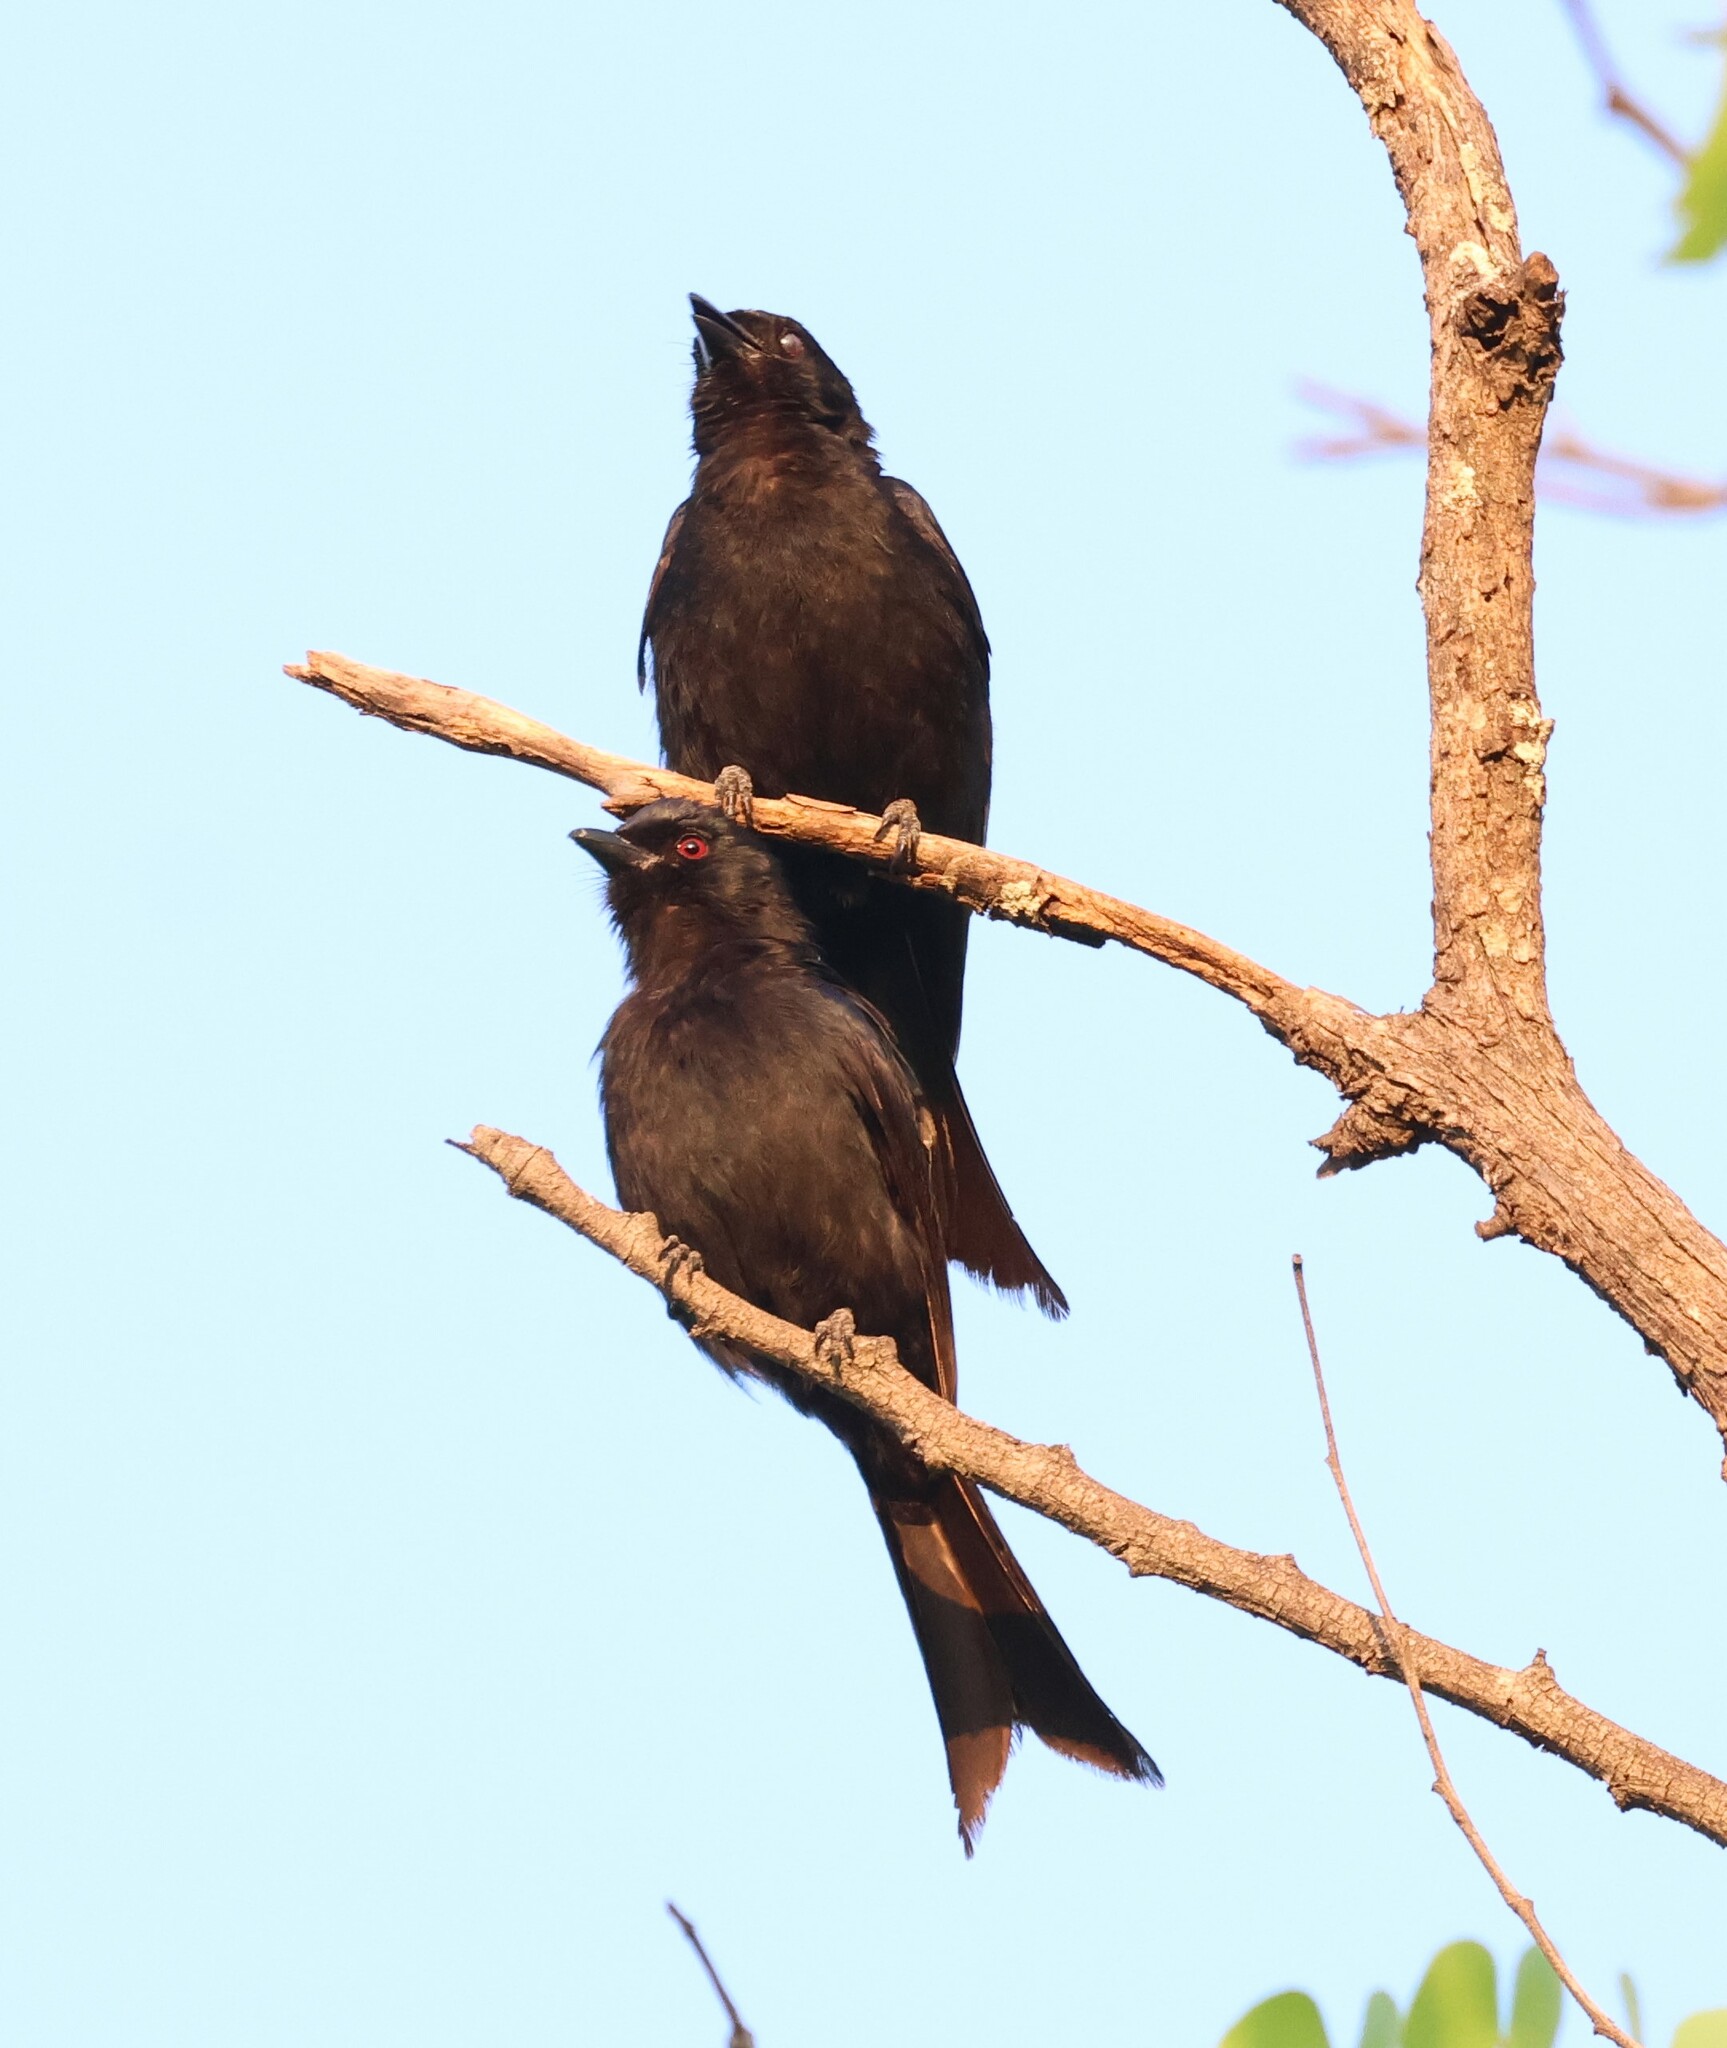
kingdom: Animalia
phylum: Chordata
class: Aves
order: Passeriformes
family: Dicruridae
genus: Dicrurus
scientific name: Dicrurus adsimilis
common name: Fork-tailed drongo
